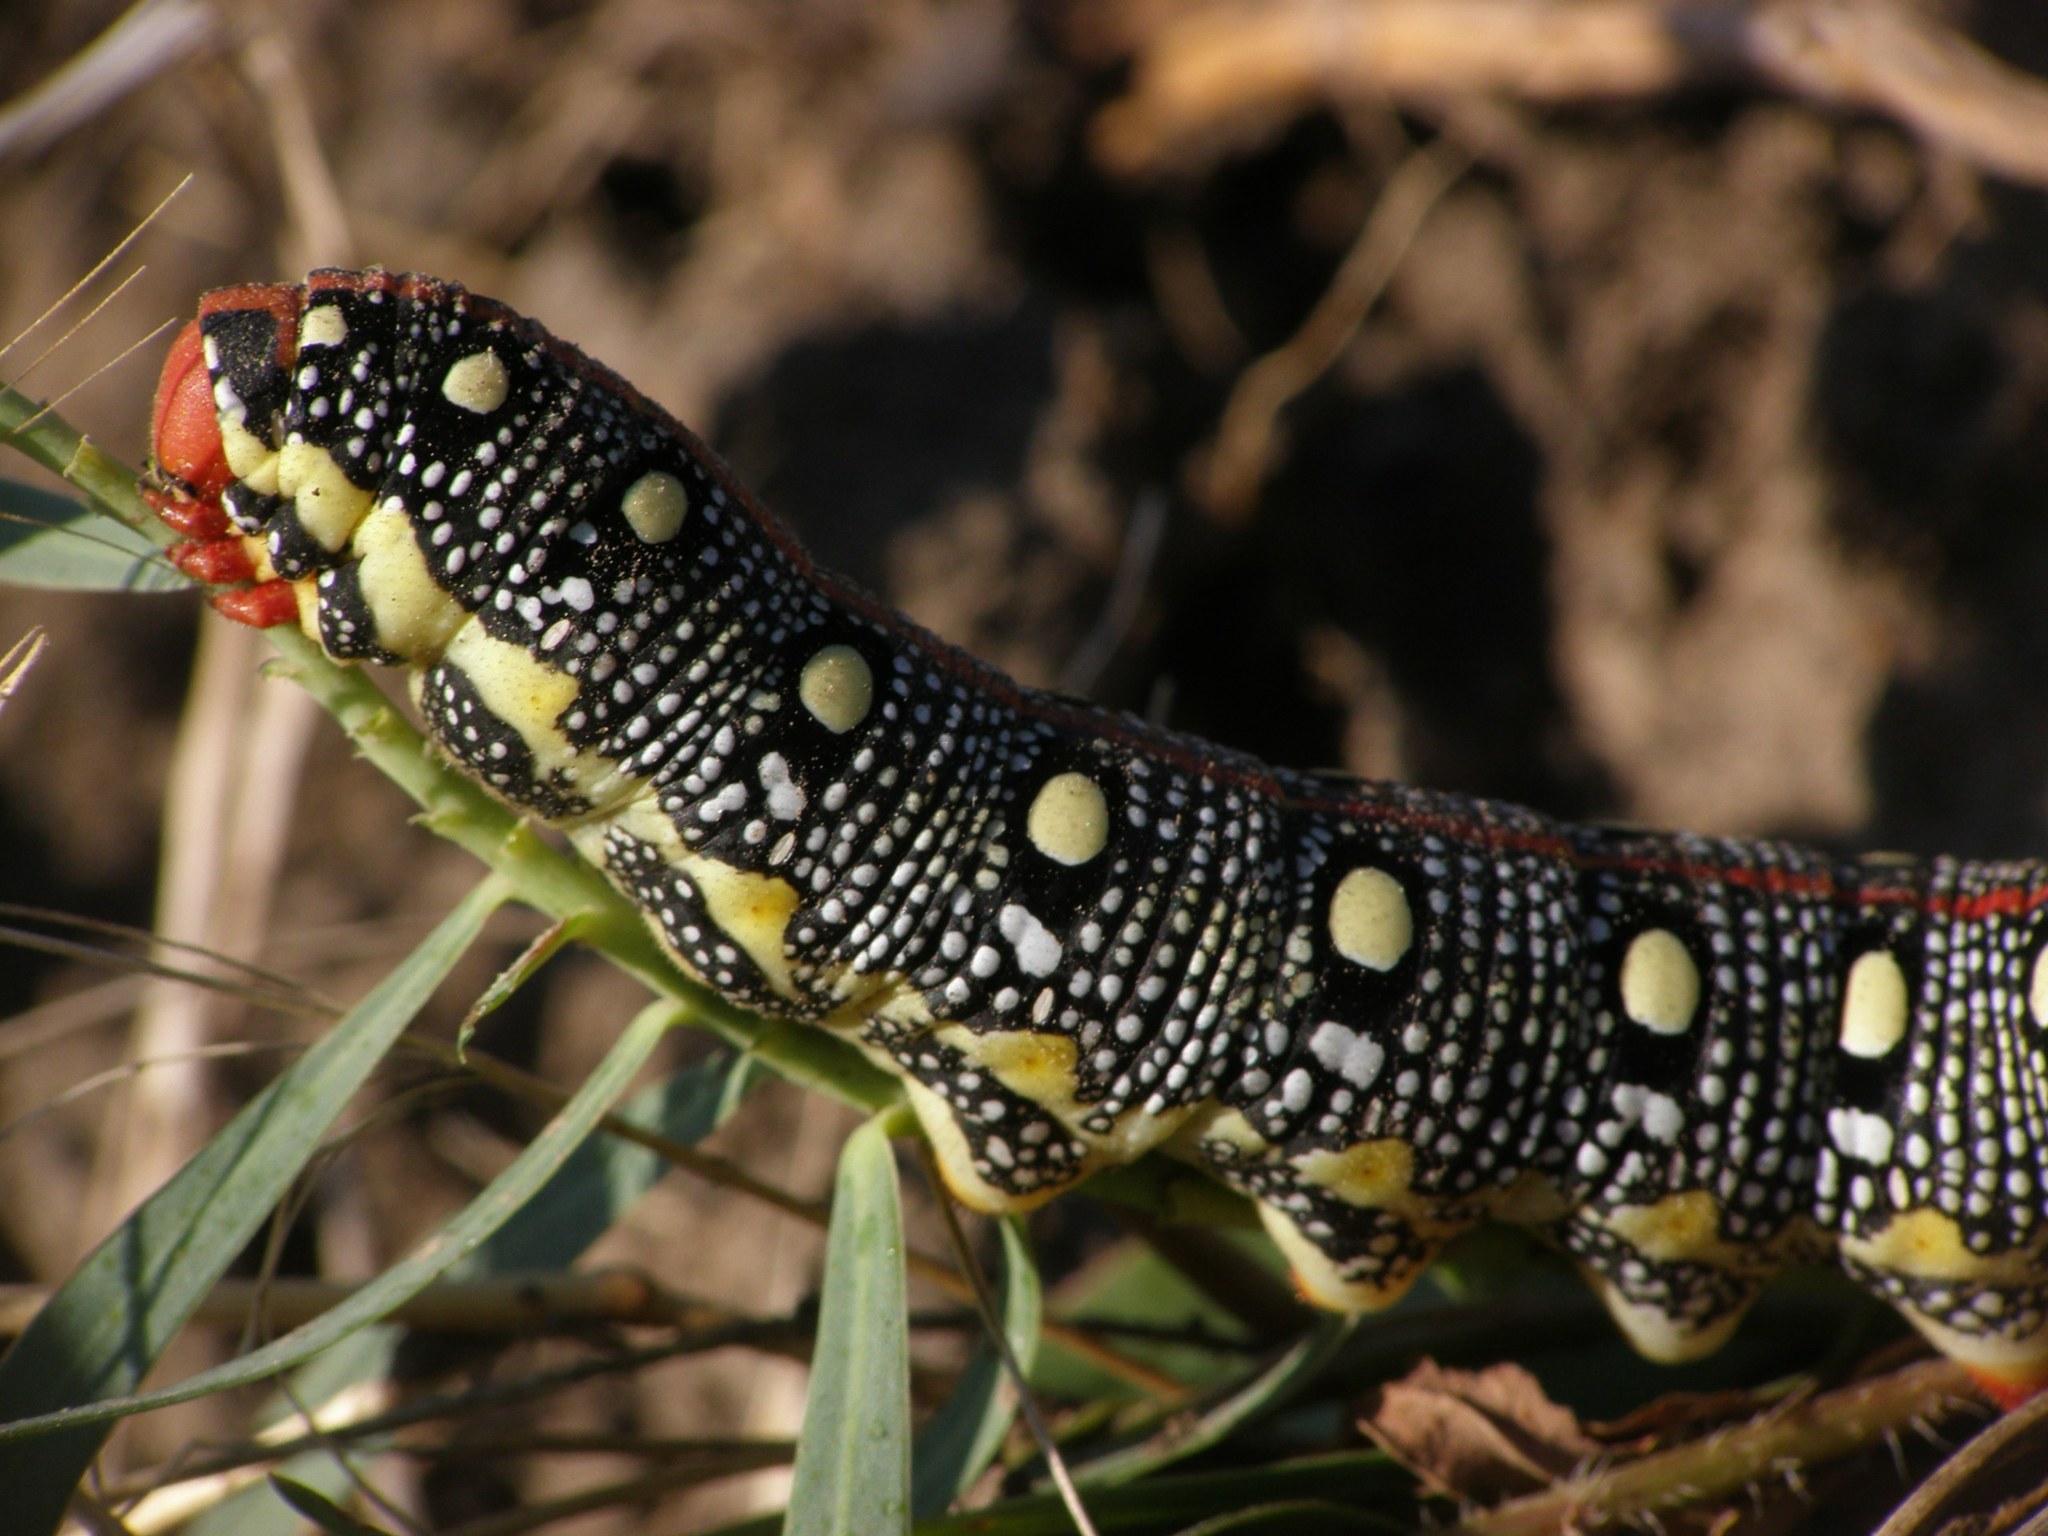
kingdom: Animalia
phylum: Arthropoda
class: Insecta
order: Lepidoptera
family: Sphingidae
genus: Hyles
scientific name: Hyles euphorbiae
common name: Spurge hawk-moth
